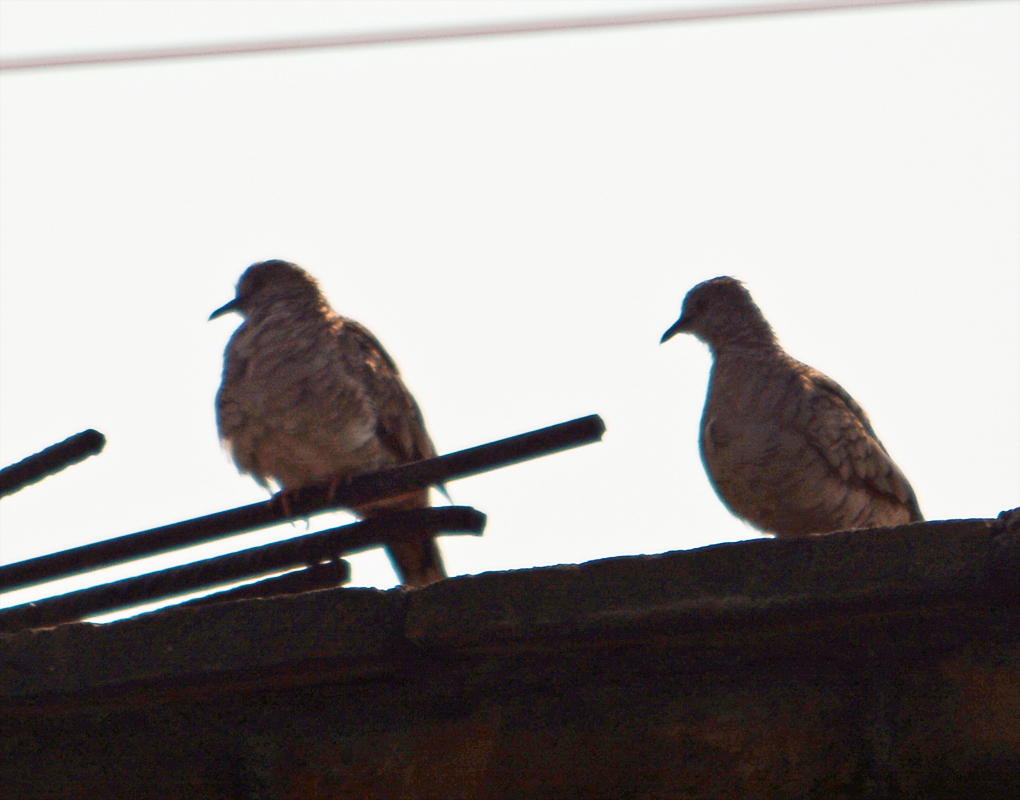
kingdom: Animalia
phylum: Chordata
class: Aves
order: Columbiformes
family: Columbidae
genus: Columbina
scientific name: Columbina inca
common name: Inca dove
